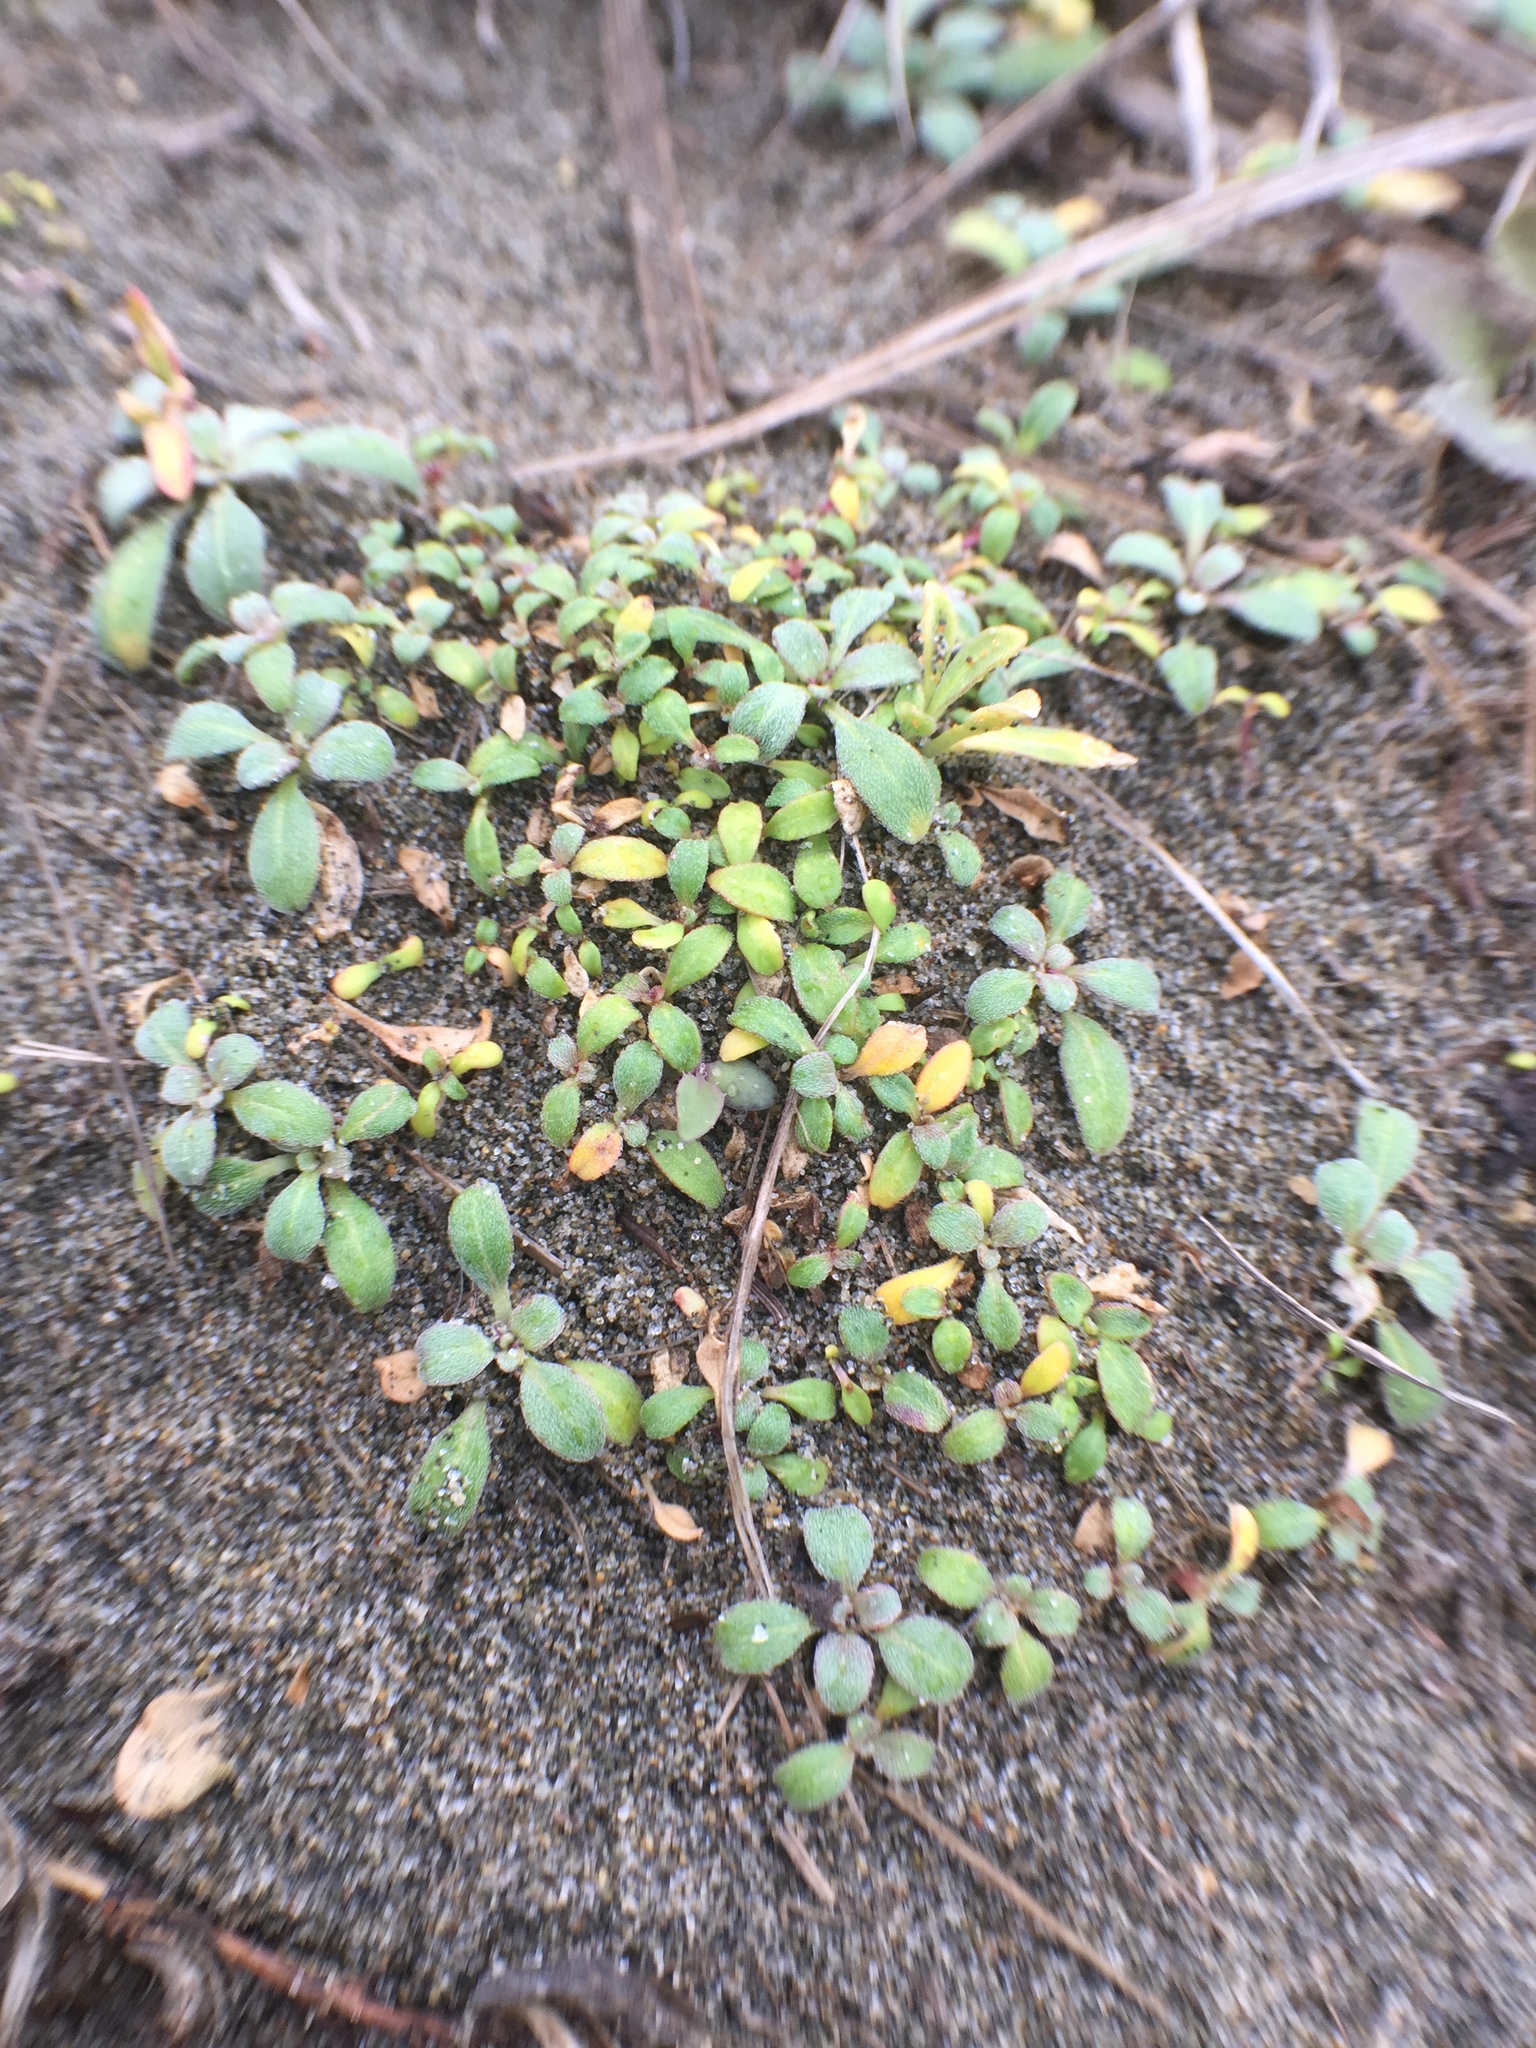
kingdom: Plantae
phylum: Tracheophyta
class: Magnoliopsida
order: Myrtales
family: Onagraceae
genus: Camissoniopsis
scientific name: Camissoniopsis cheiranthifolia
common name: Beach suncup
